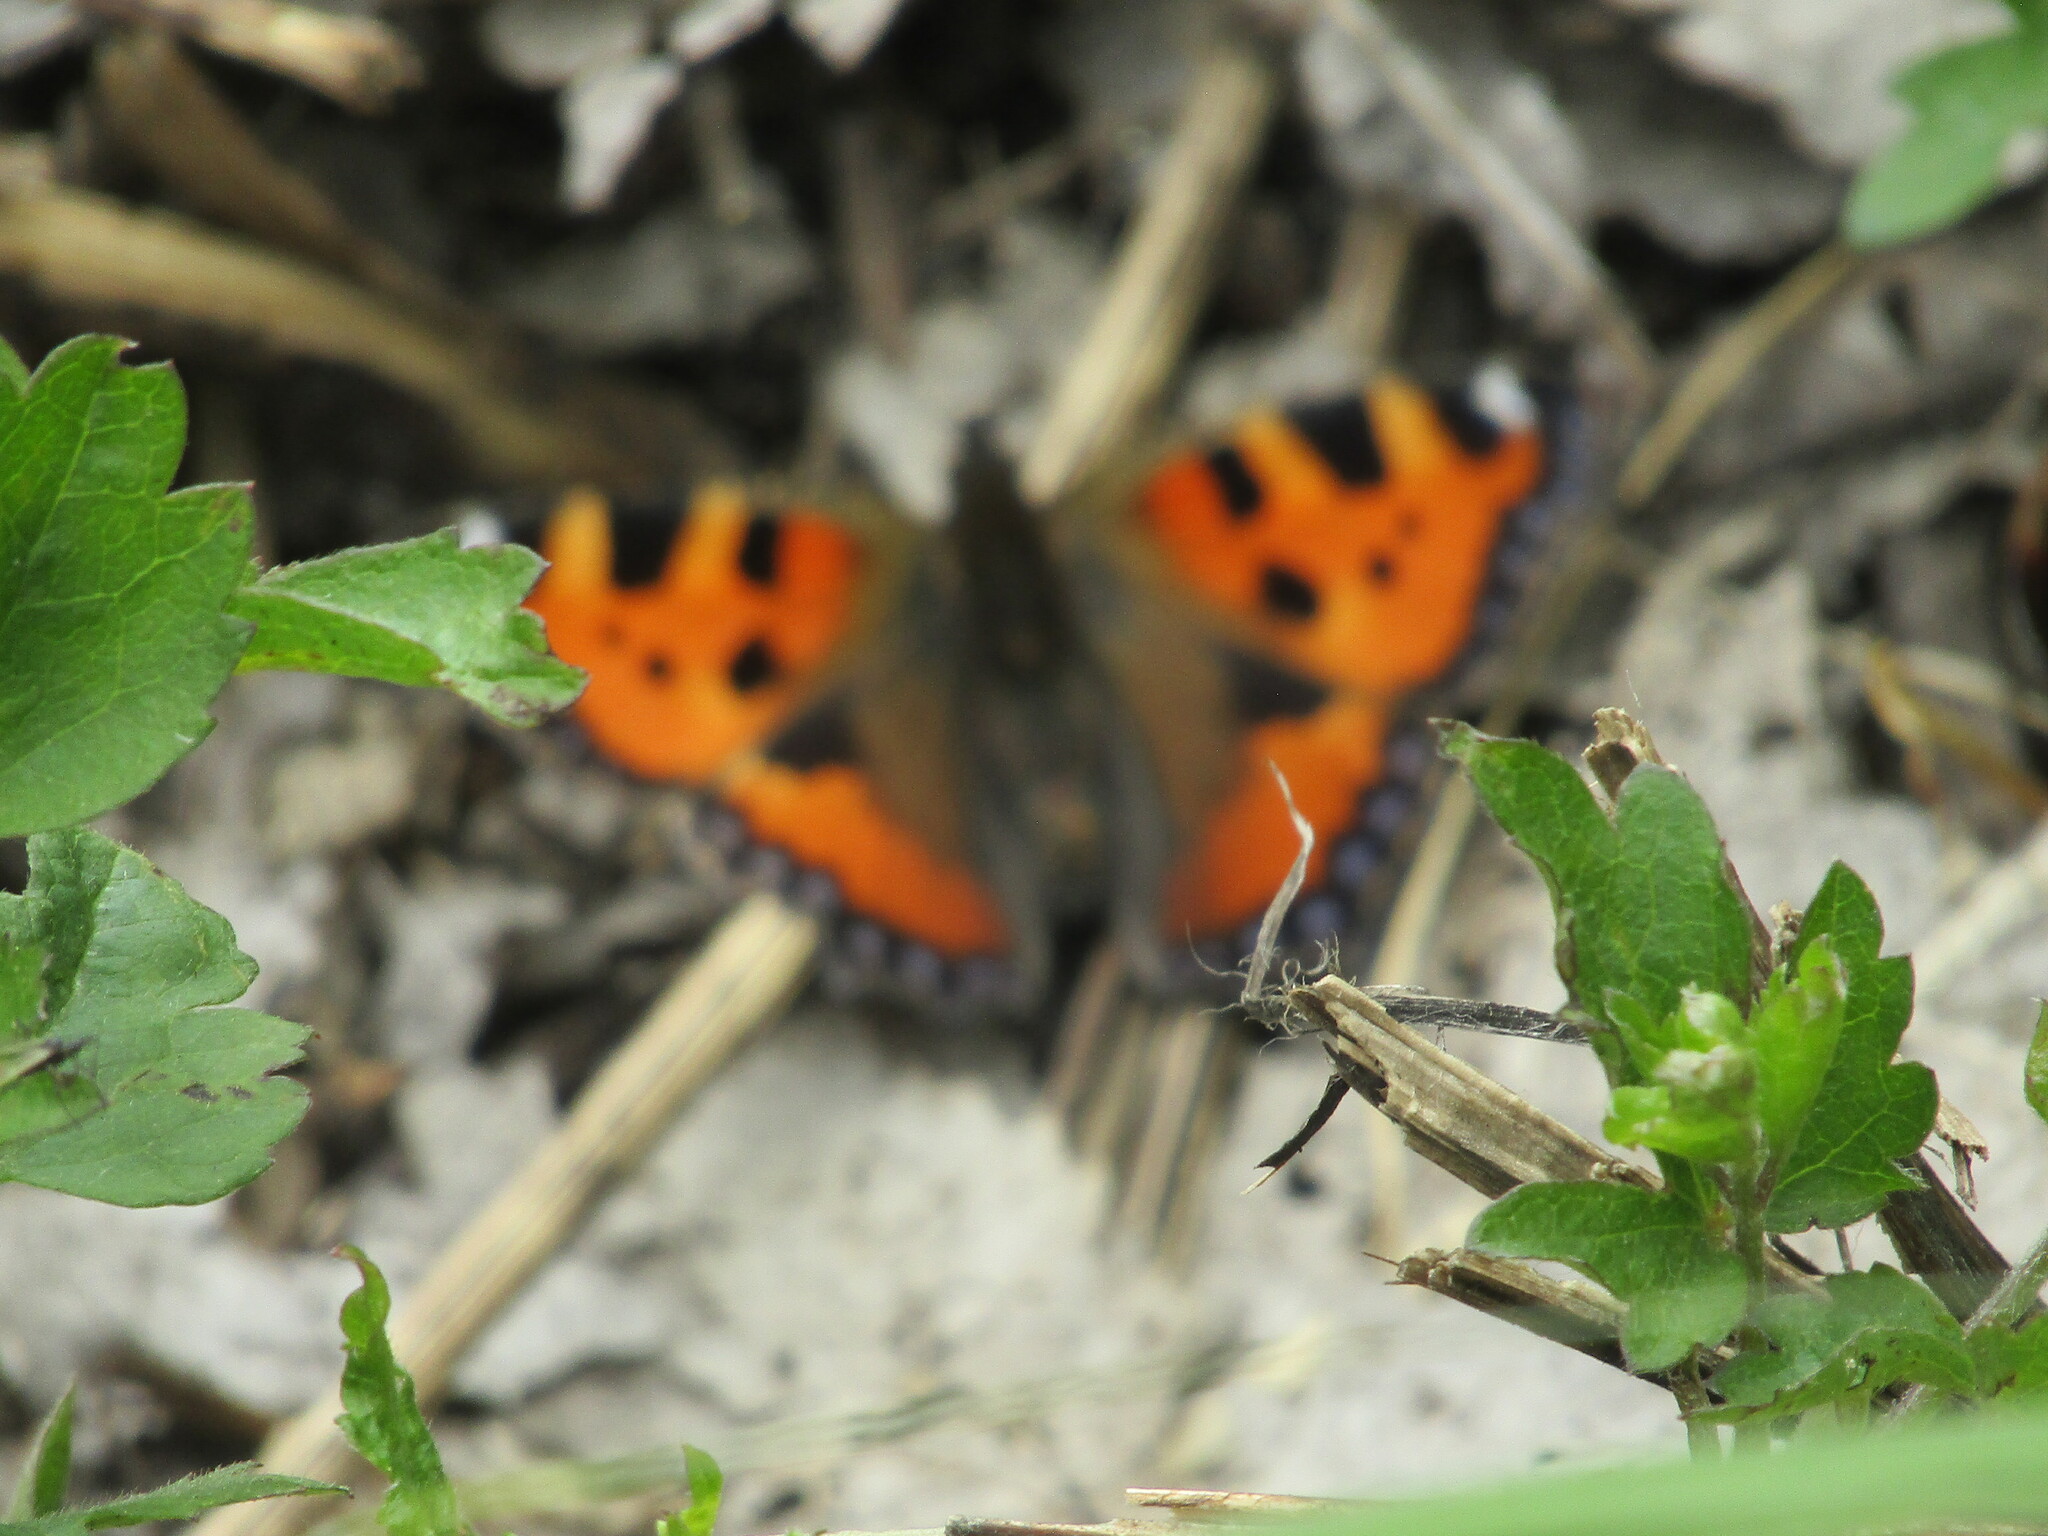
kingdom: Animalia
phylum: Arthropoda
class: Insecta
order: Lepidoptera
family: Nymphalidae
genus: Aglais
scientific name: Aglais urticae
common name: Small tortoiseshell
